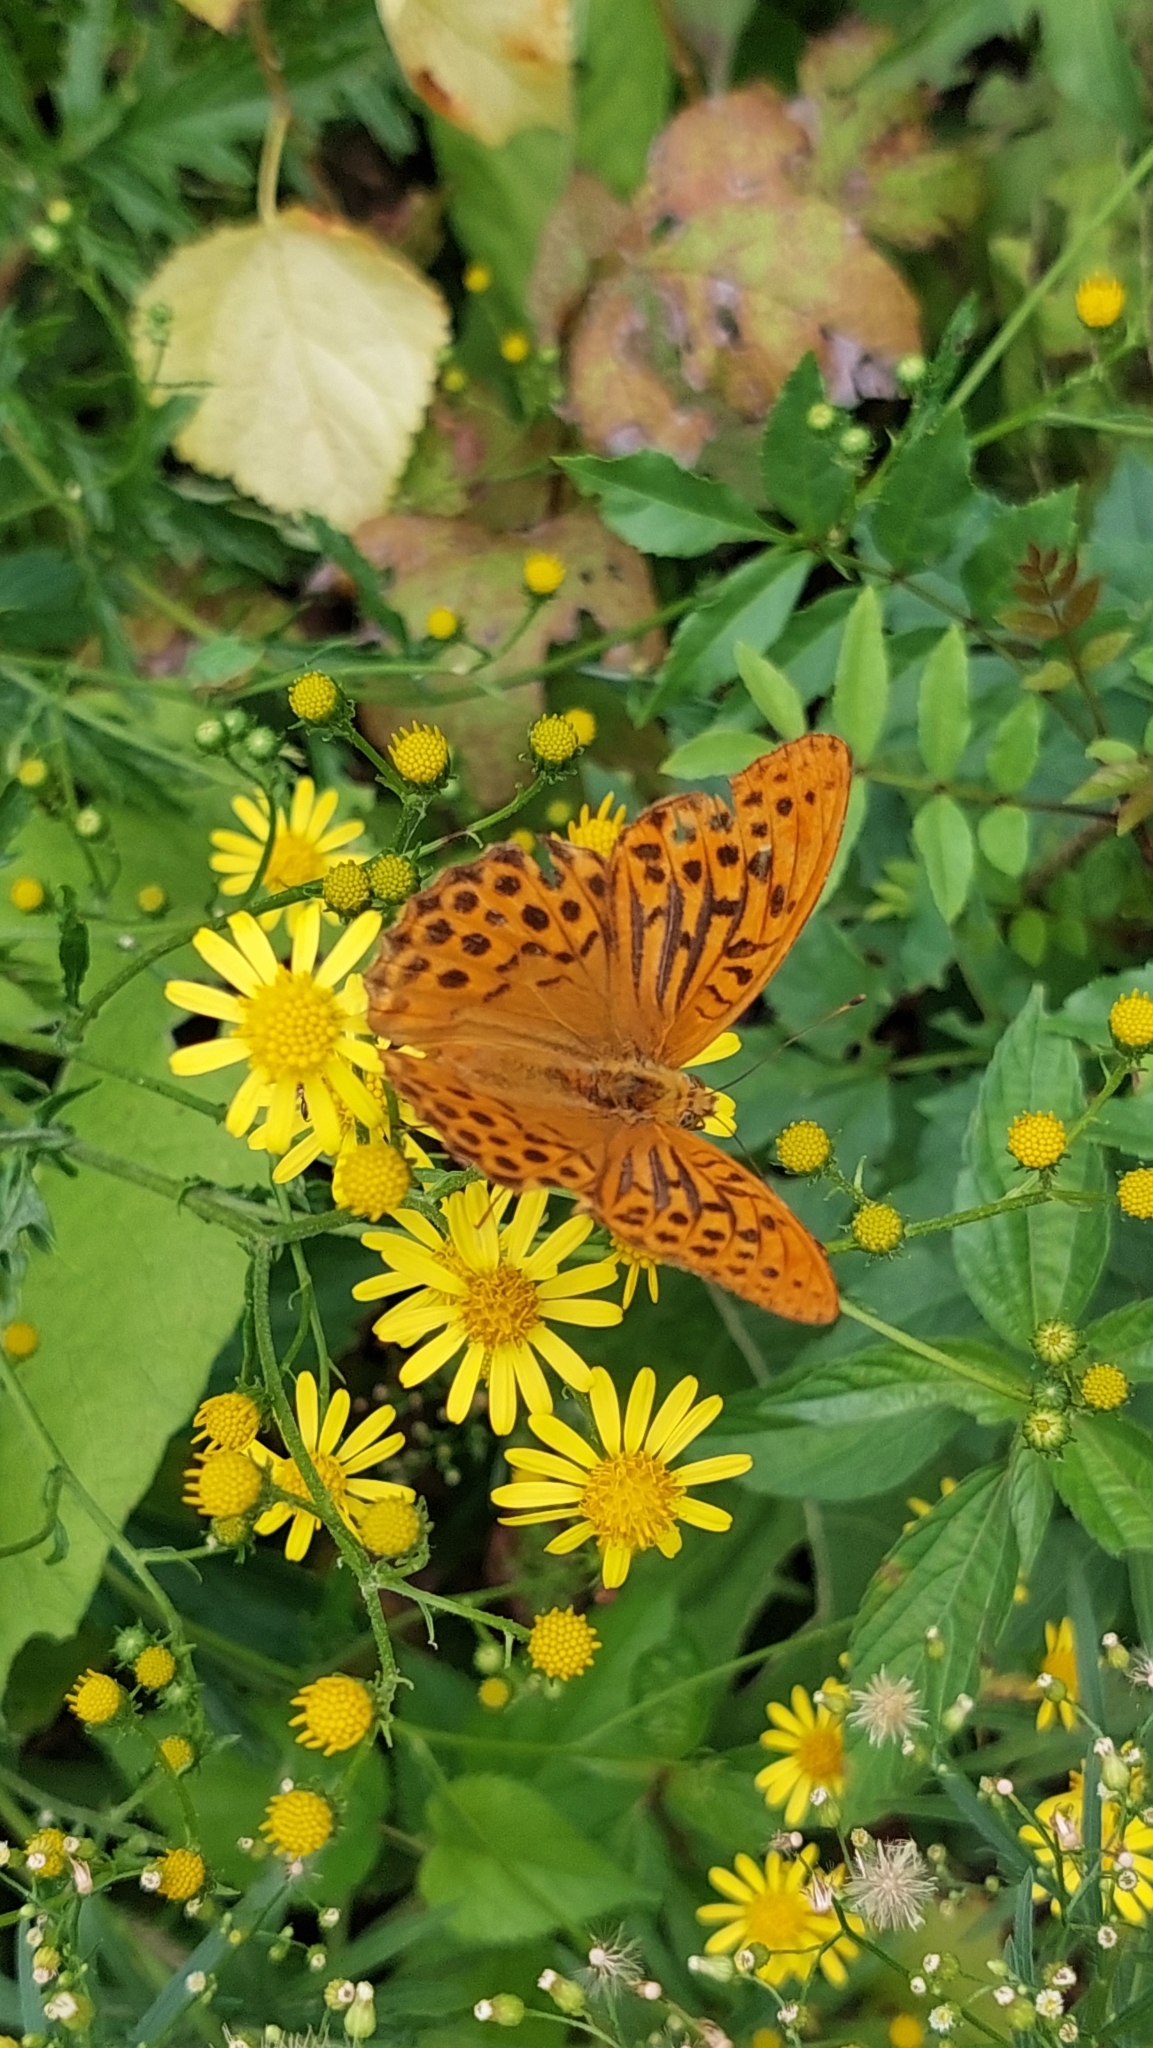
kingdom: Animalia
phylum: Arthropoda
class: Insecta
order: Lepidoptera
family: Nymphalidae
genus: Argynnis
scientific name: Argynnis paphia
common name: Silver-washed fritillary
